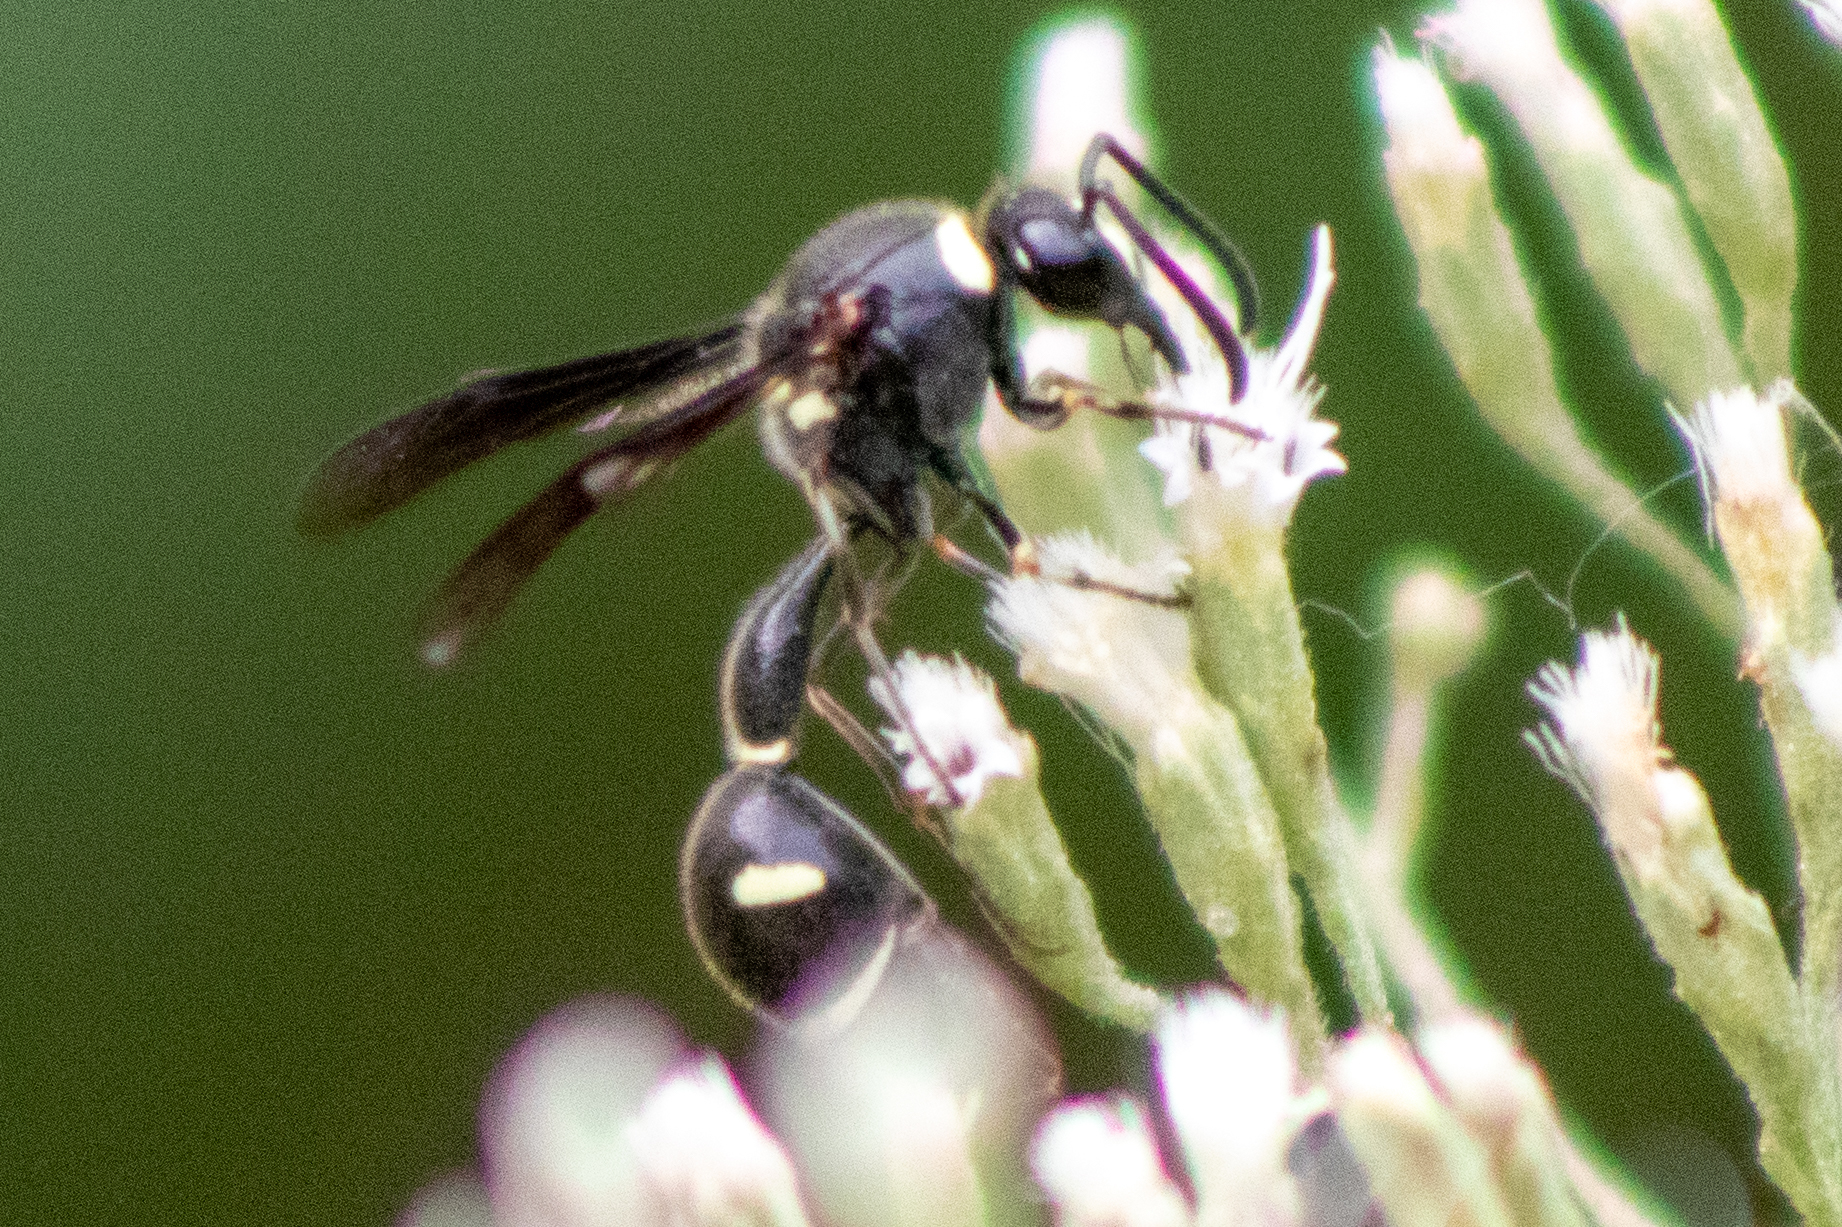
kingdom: Animalia
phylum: Arthropoda
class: Insecta
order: Hymenoptera
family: Vespidae
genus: Eumenes
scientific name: Eumenes fraternus
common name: Fraternal potter wasp
